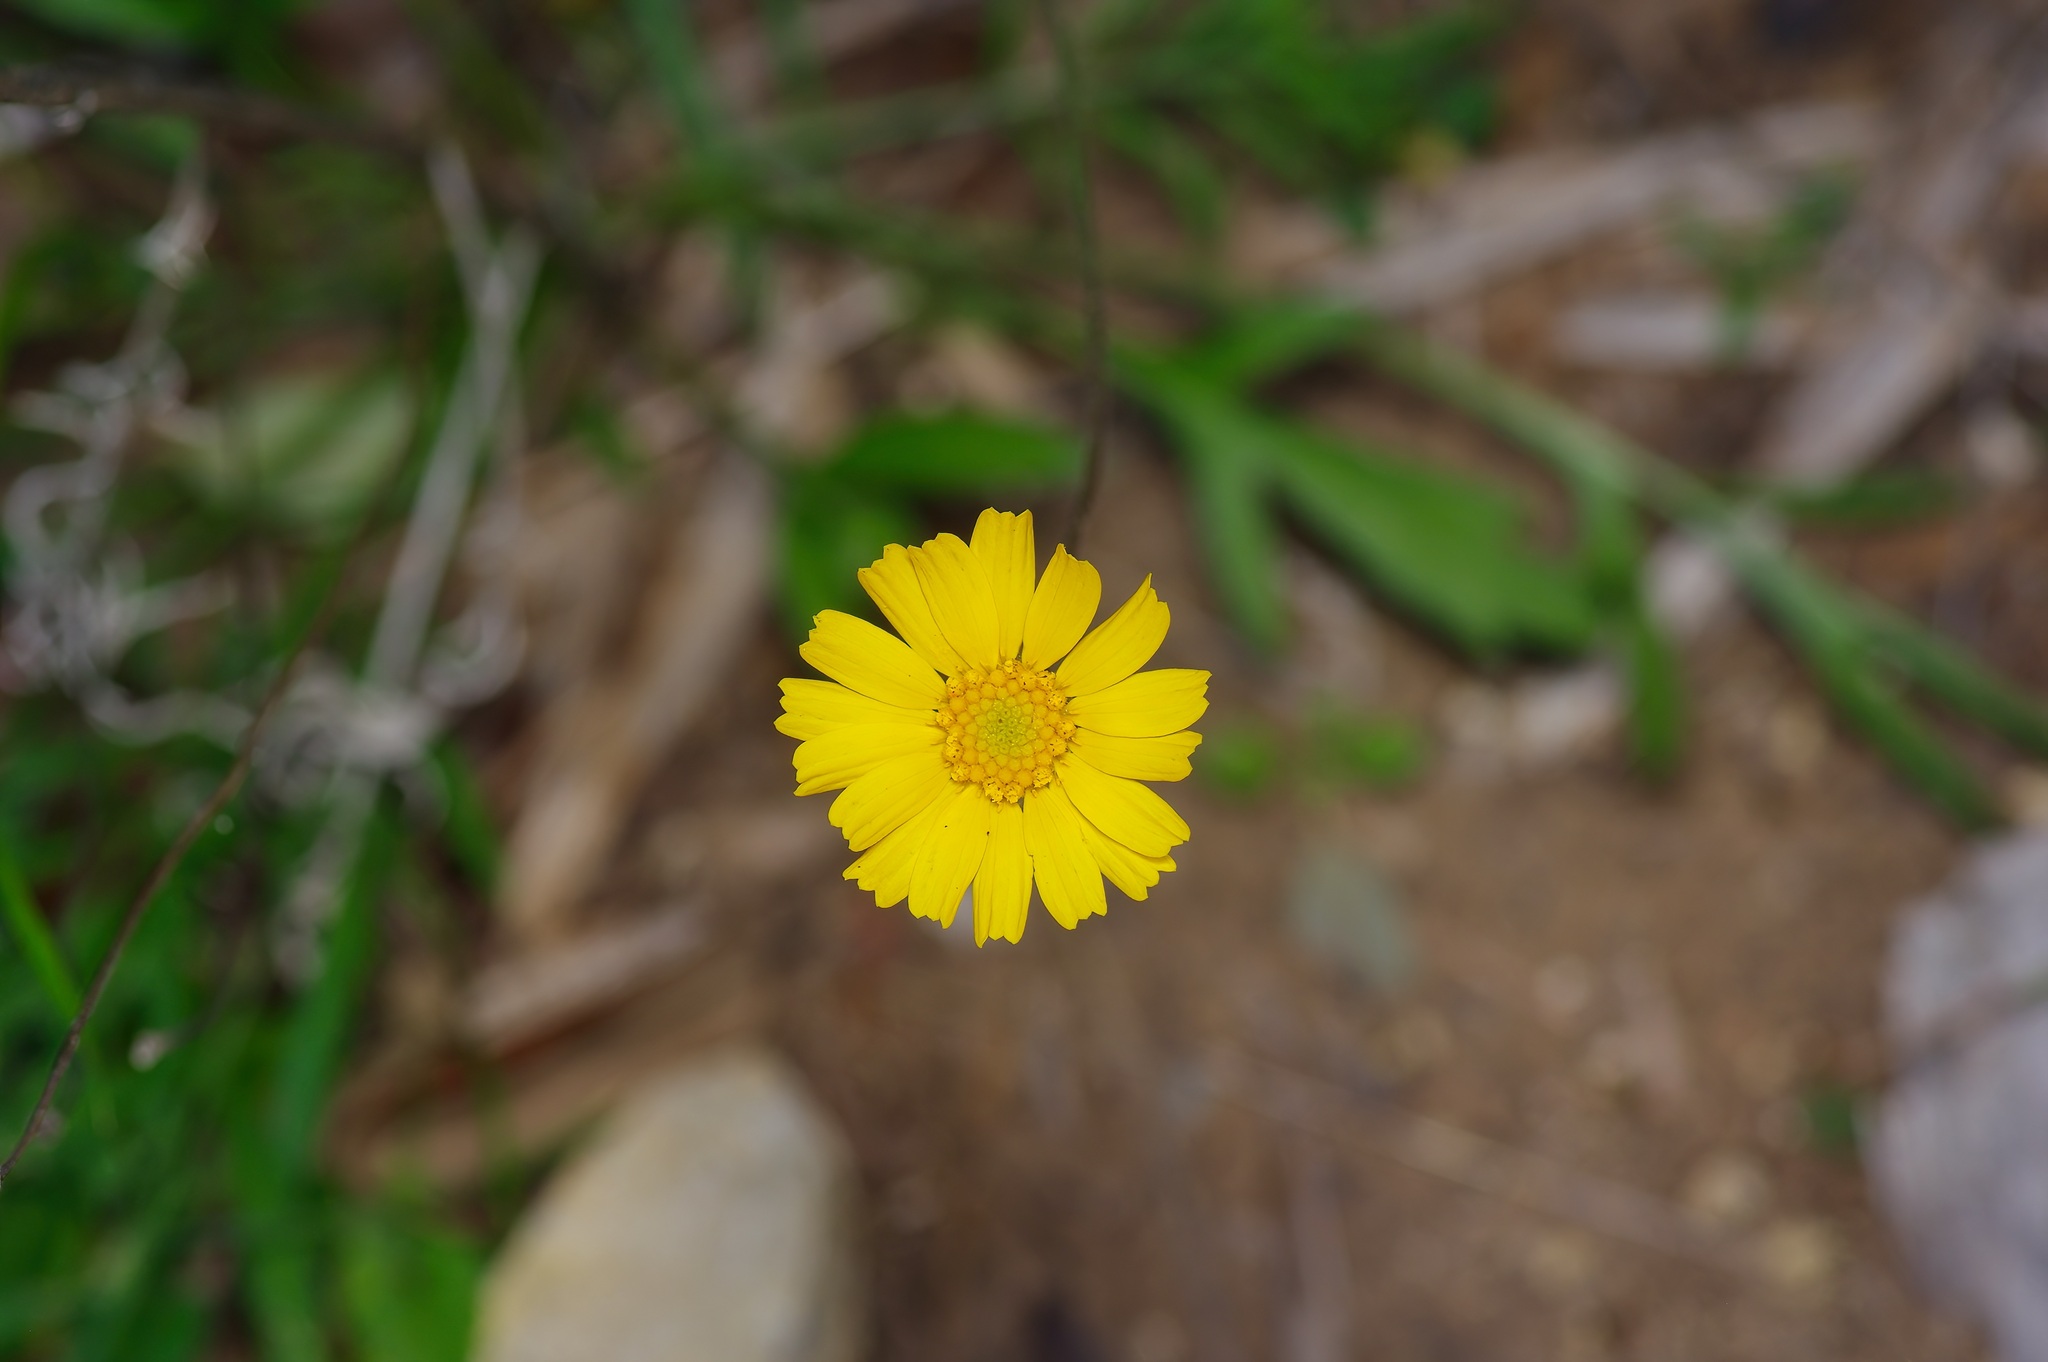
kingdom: Plantae
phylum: Tracheophyta
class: Magnoliopsida
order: Asterales
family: Asteraceae
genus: Tetraneuris
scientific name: Tetraneuris scaposa
